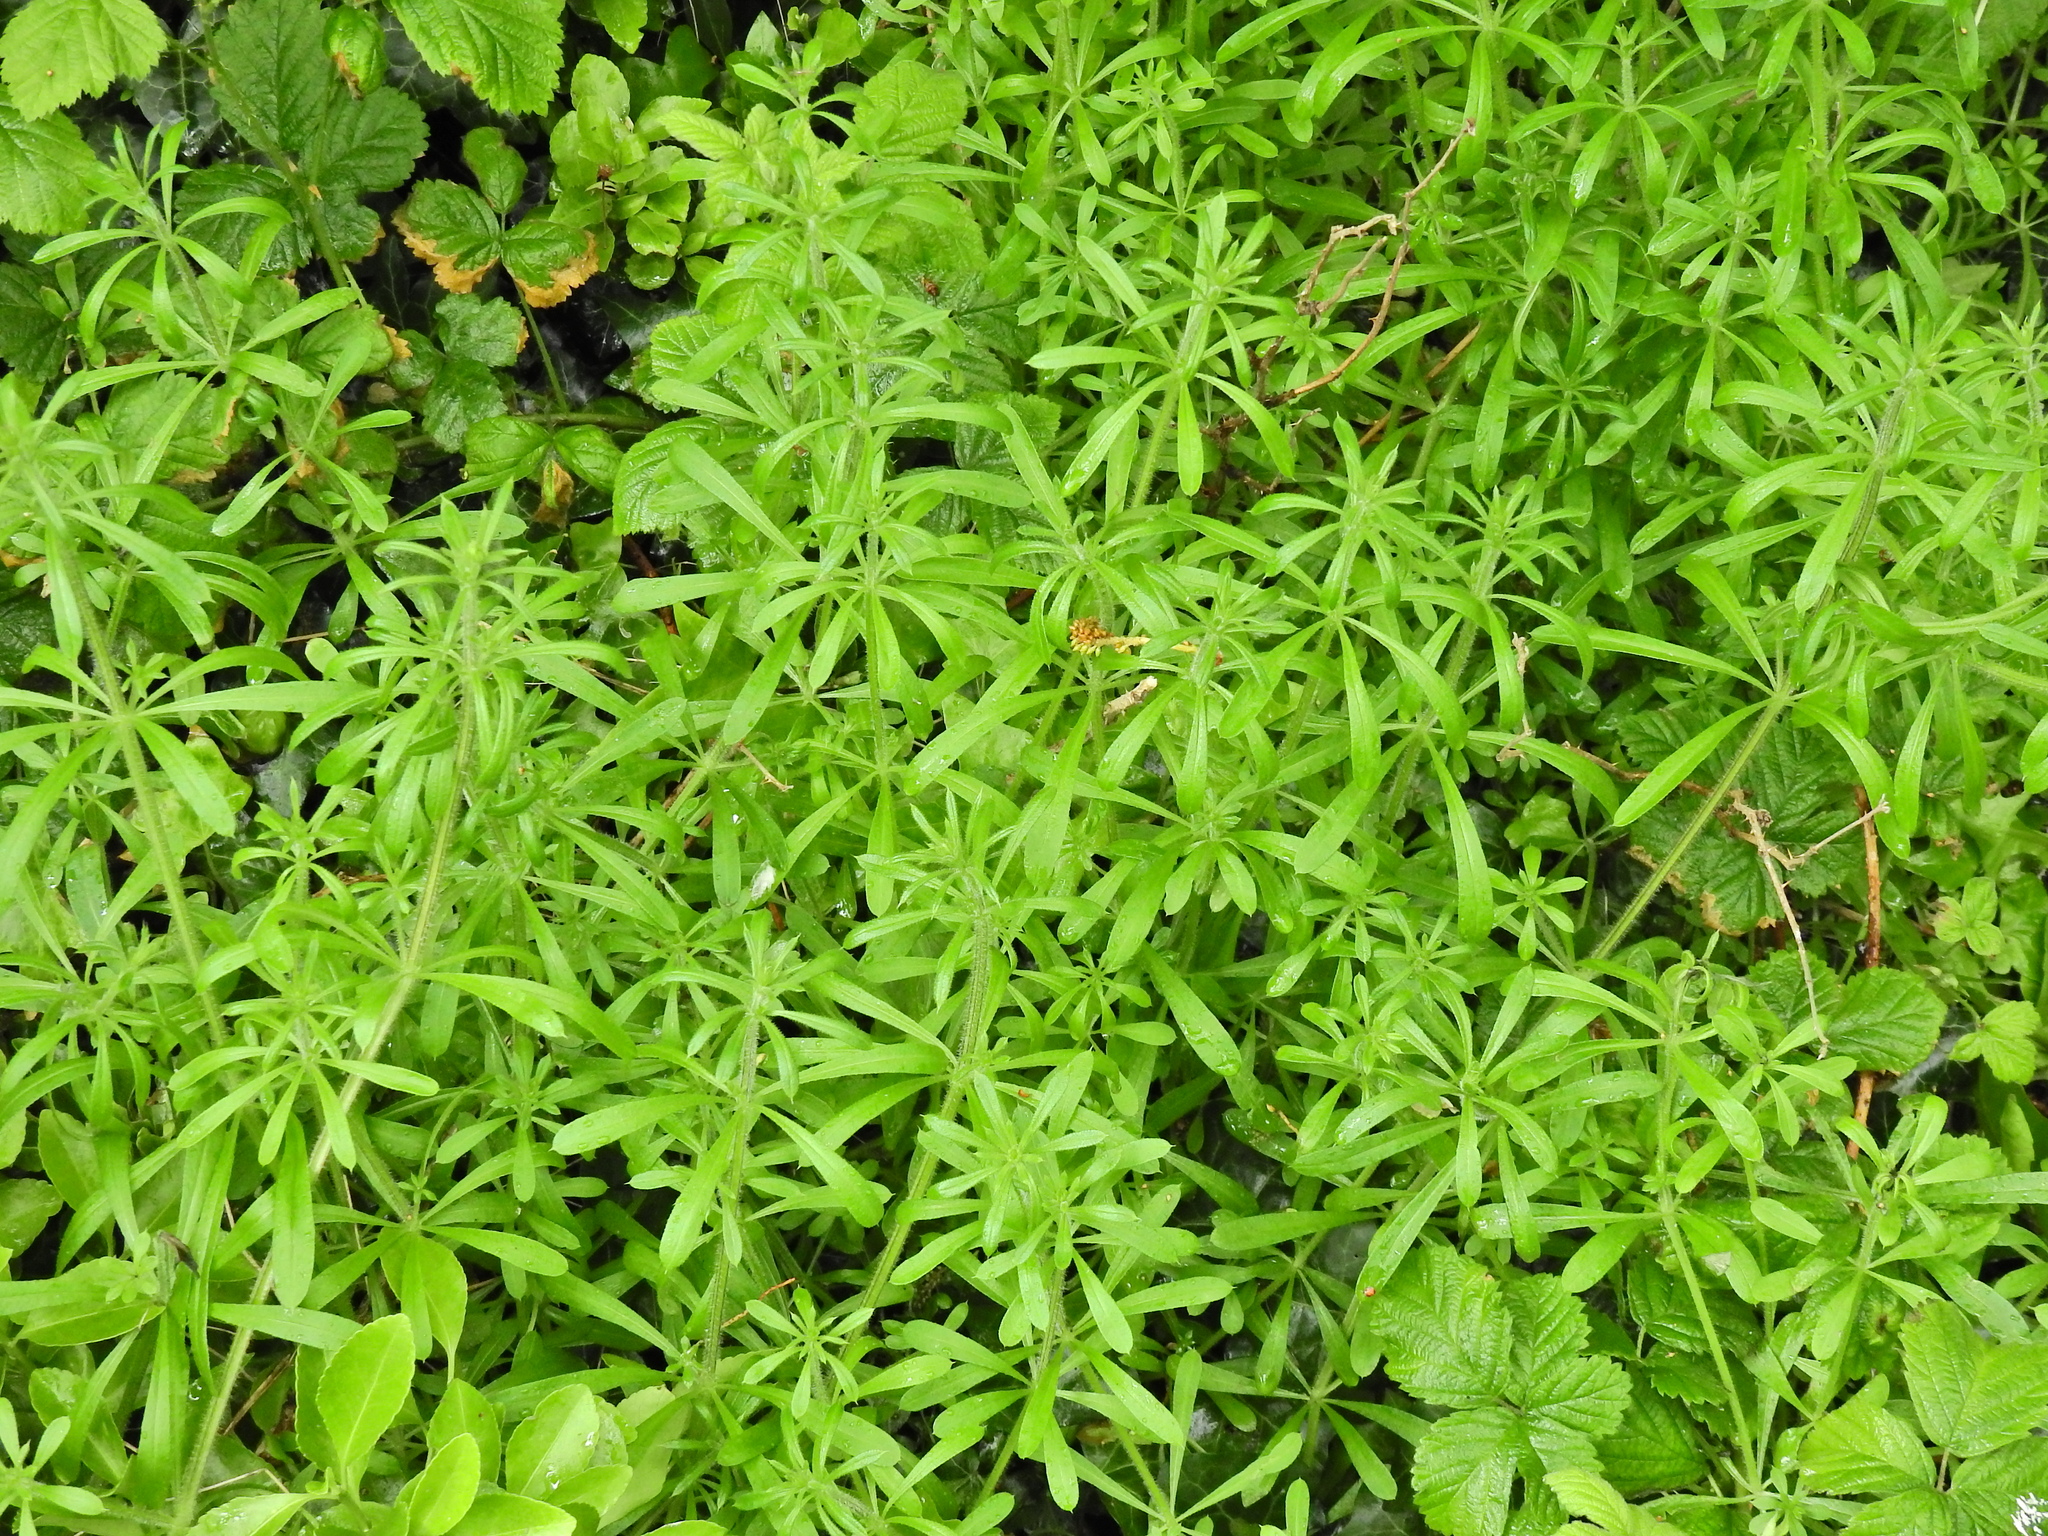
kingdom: Plantae
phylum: Tracheophyta
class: Magnoliopsida
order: Gentianales
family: Rubiaceae
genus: Galium
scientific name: Galium aparine
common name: Cleavers
